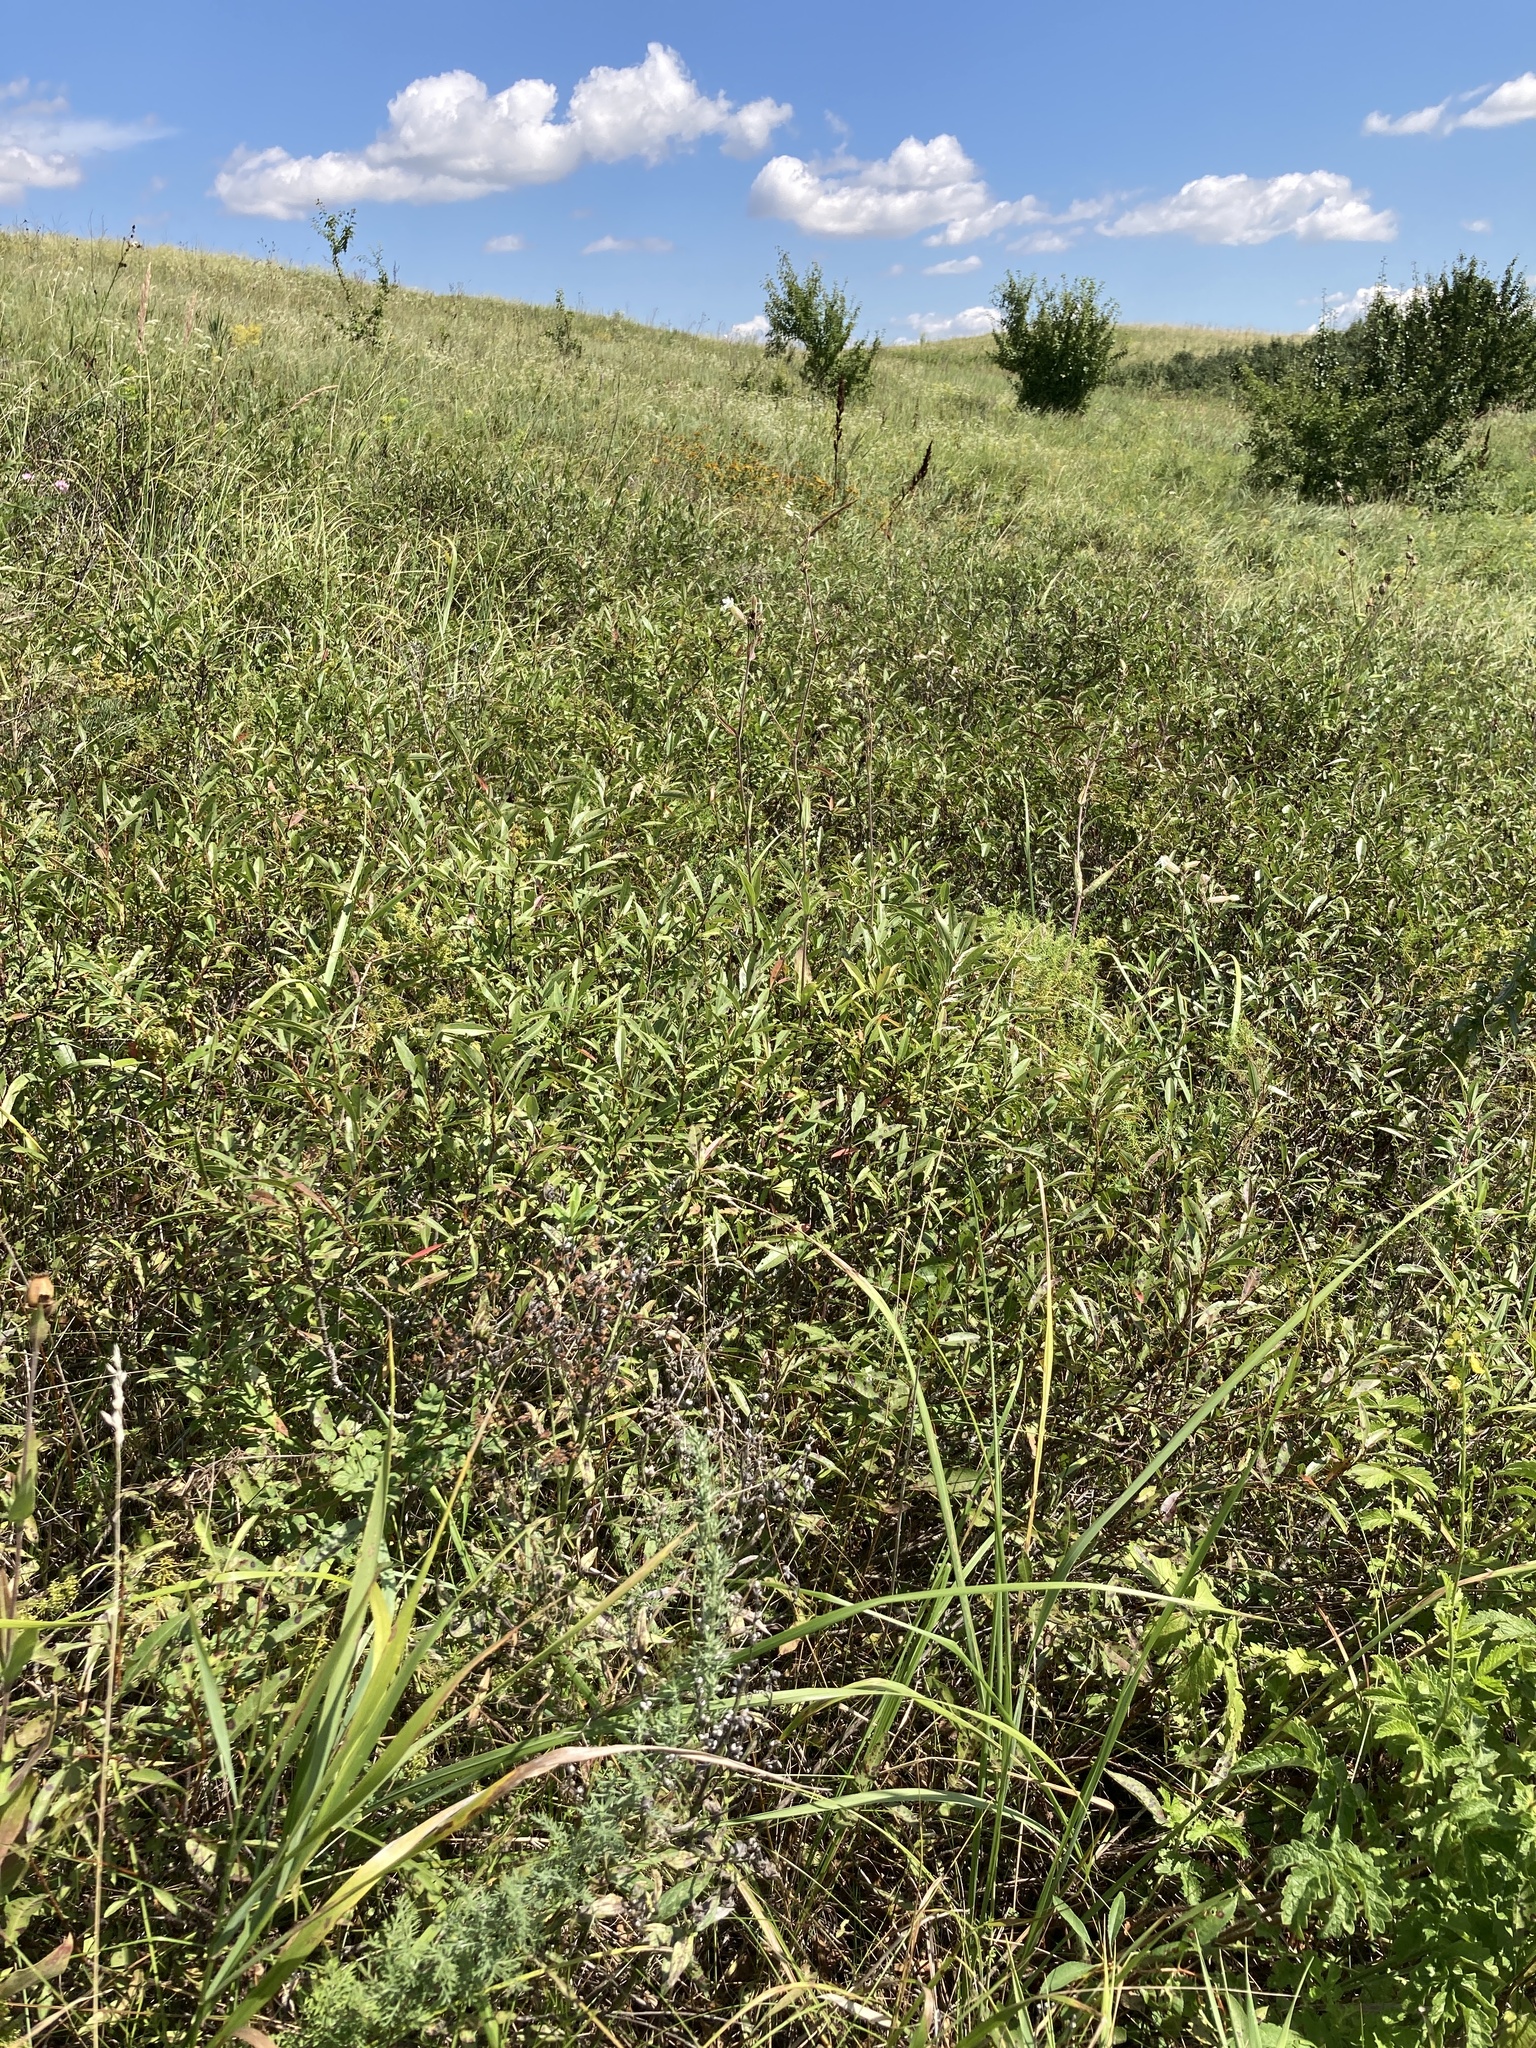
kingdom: Plantae
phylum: Tracheophyta
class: Magnoliopsida
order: Rosales
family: Rosaceae
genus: Prunus
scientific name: Prunus tenella
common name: Dwarf russian almond
